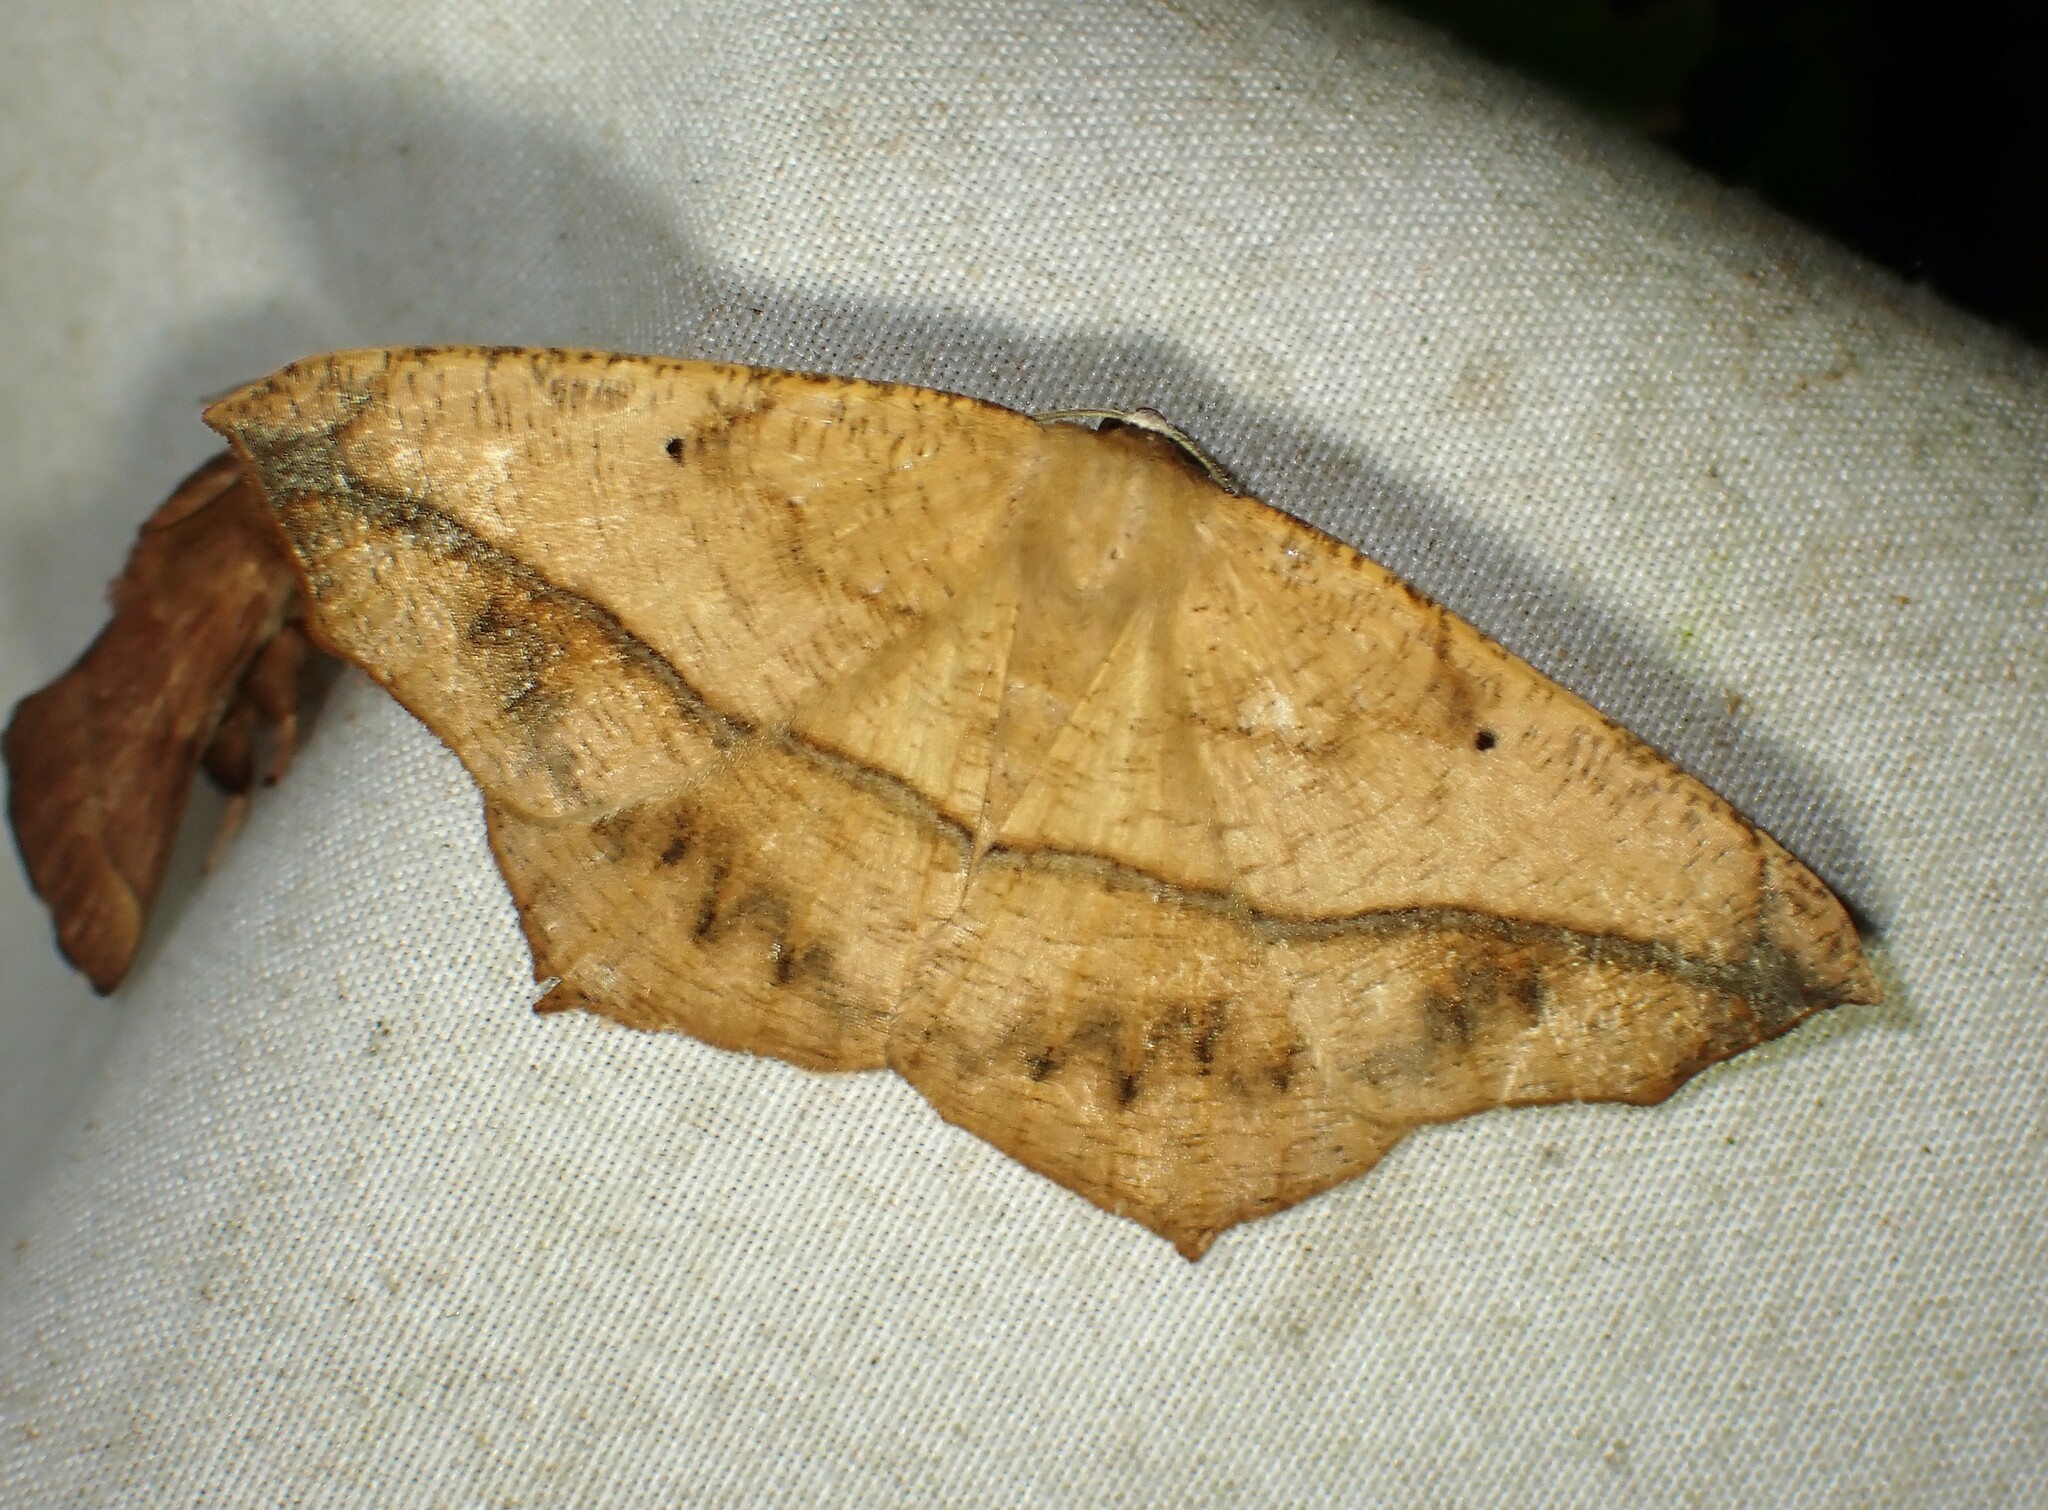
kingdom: Animalia
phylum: Arthropoda
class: Insecta
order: Lepidoptera
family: Geometridae
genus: Prochoerodes
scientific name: Prochoerodes lineola
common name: Large maple spanworm
